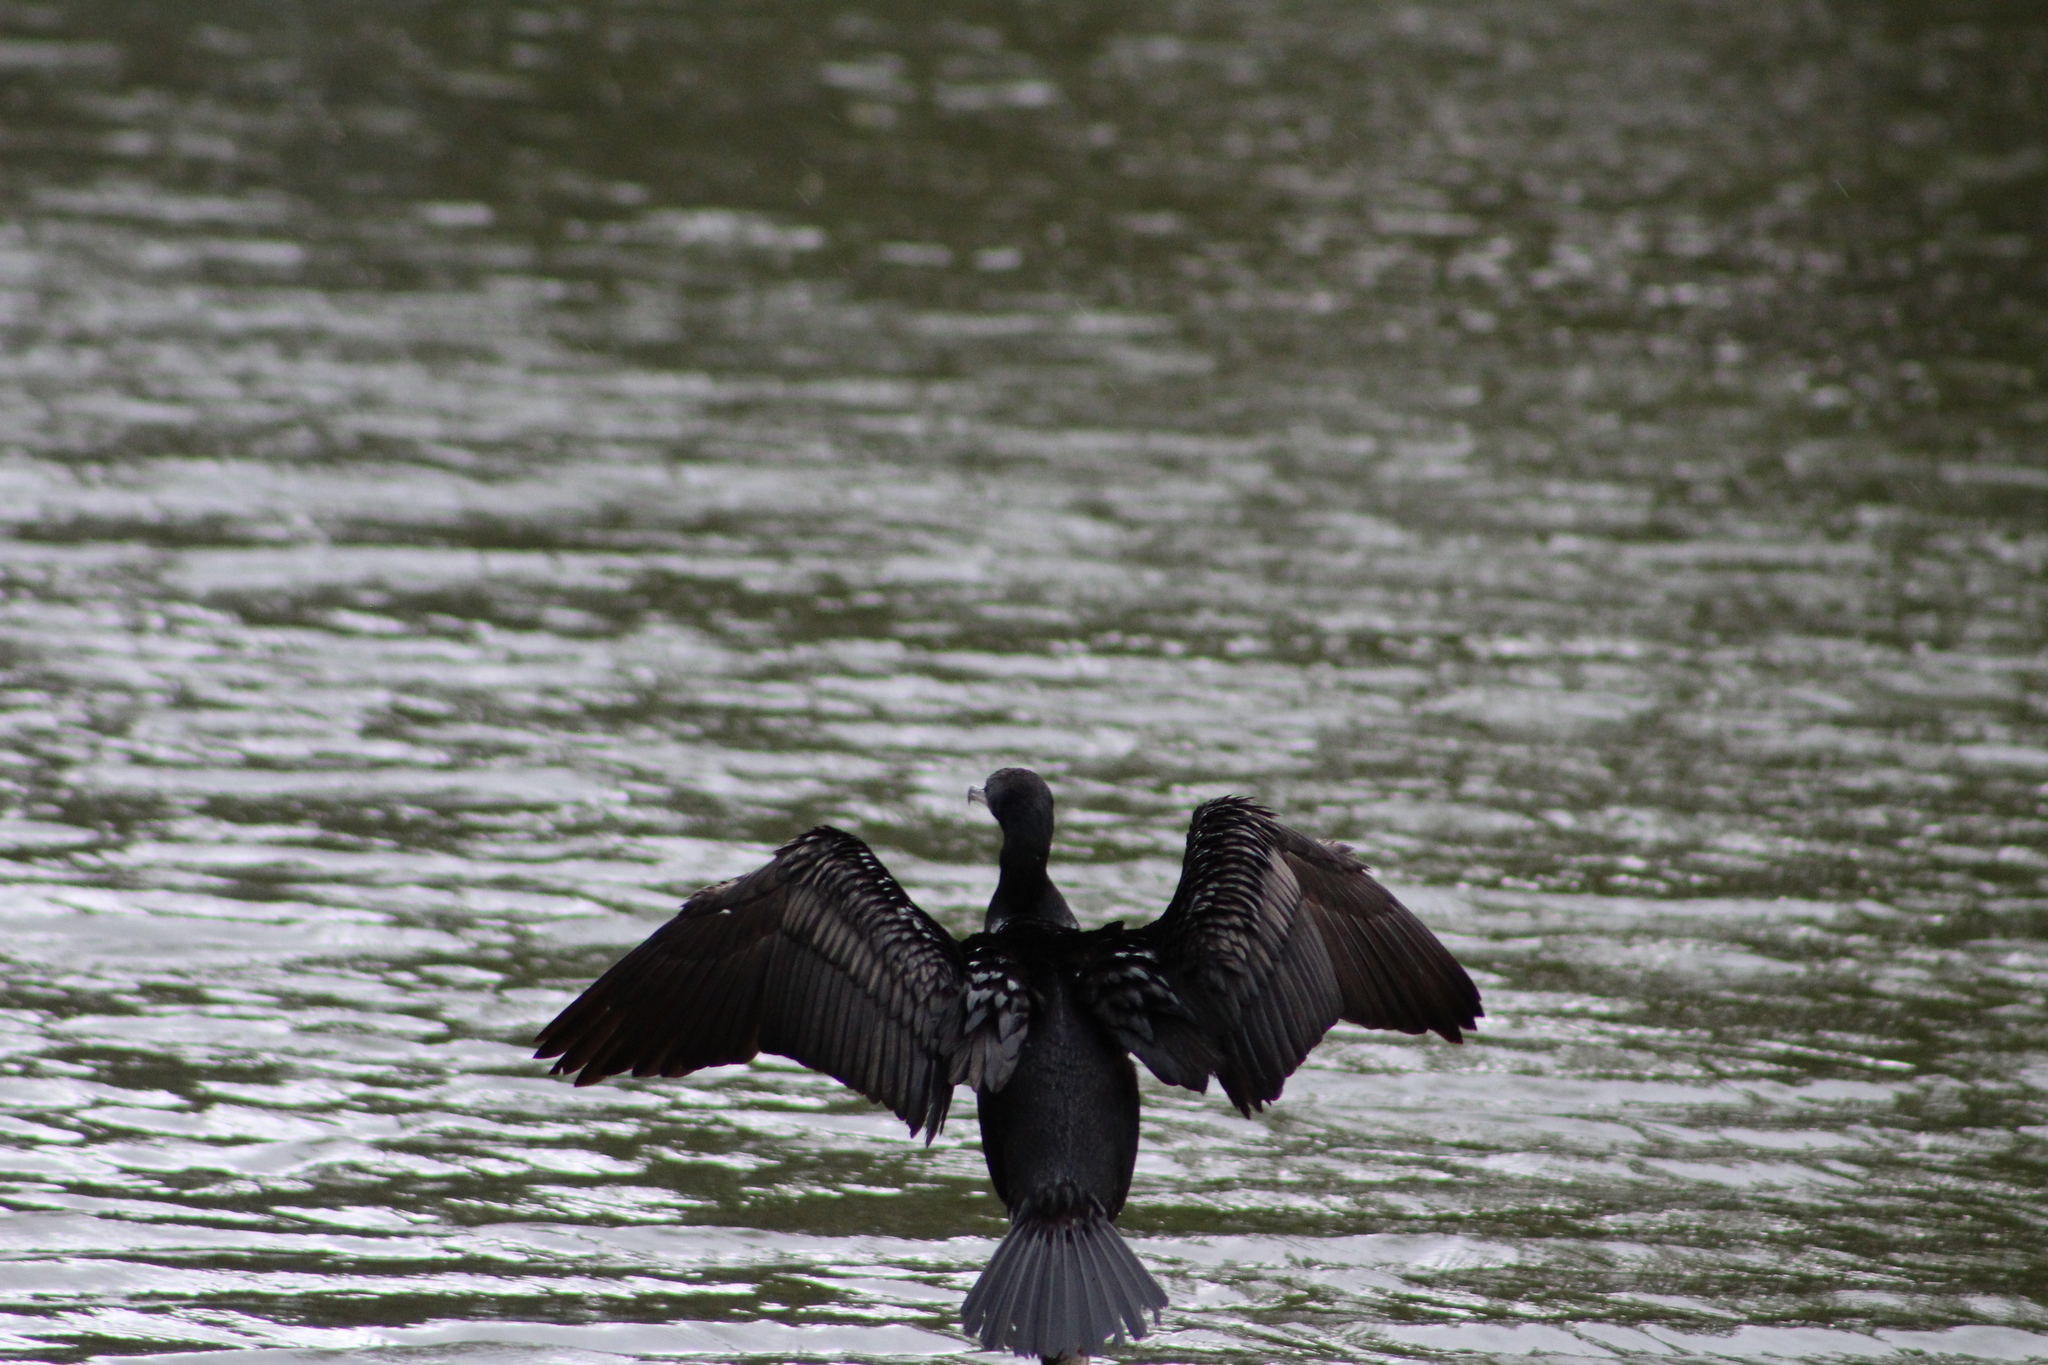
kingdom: Animalia
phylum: Chordata
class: Aves
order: Suliformes
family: Phalacrocoracidae
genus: Phalacrocorax
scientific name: Phalacrocorax auritus
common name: Double-crested cormorant
